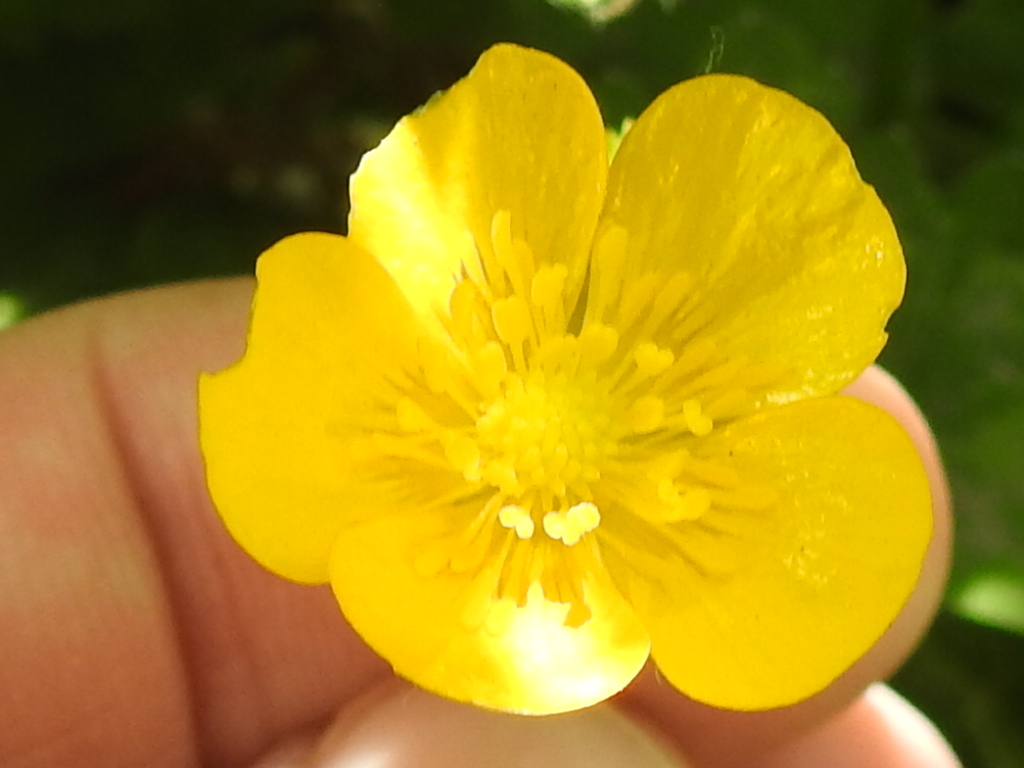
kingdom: Plantae
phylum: Tracheophyta
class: Magnoliopsida
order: Ranunculales
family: Ranunculaceae
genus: Ranunculus
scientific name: Ranunculus repens
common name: Creeping buttercup
